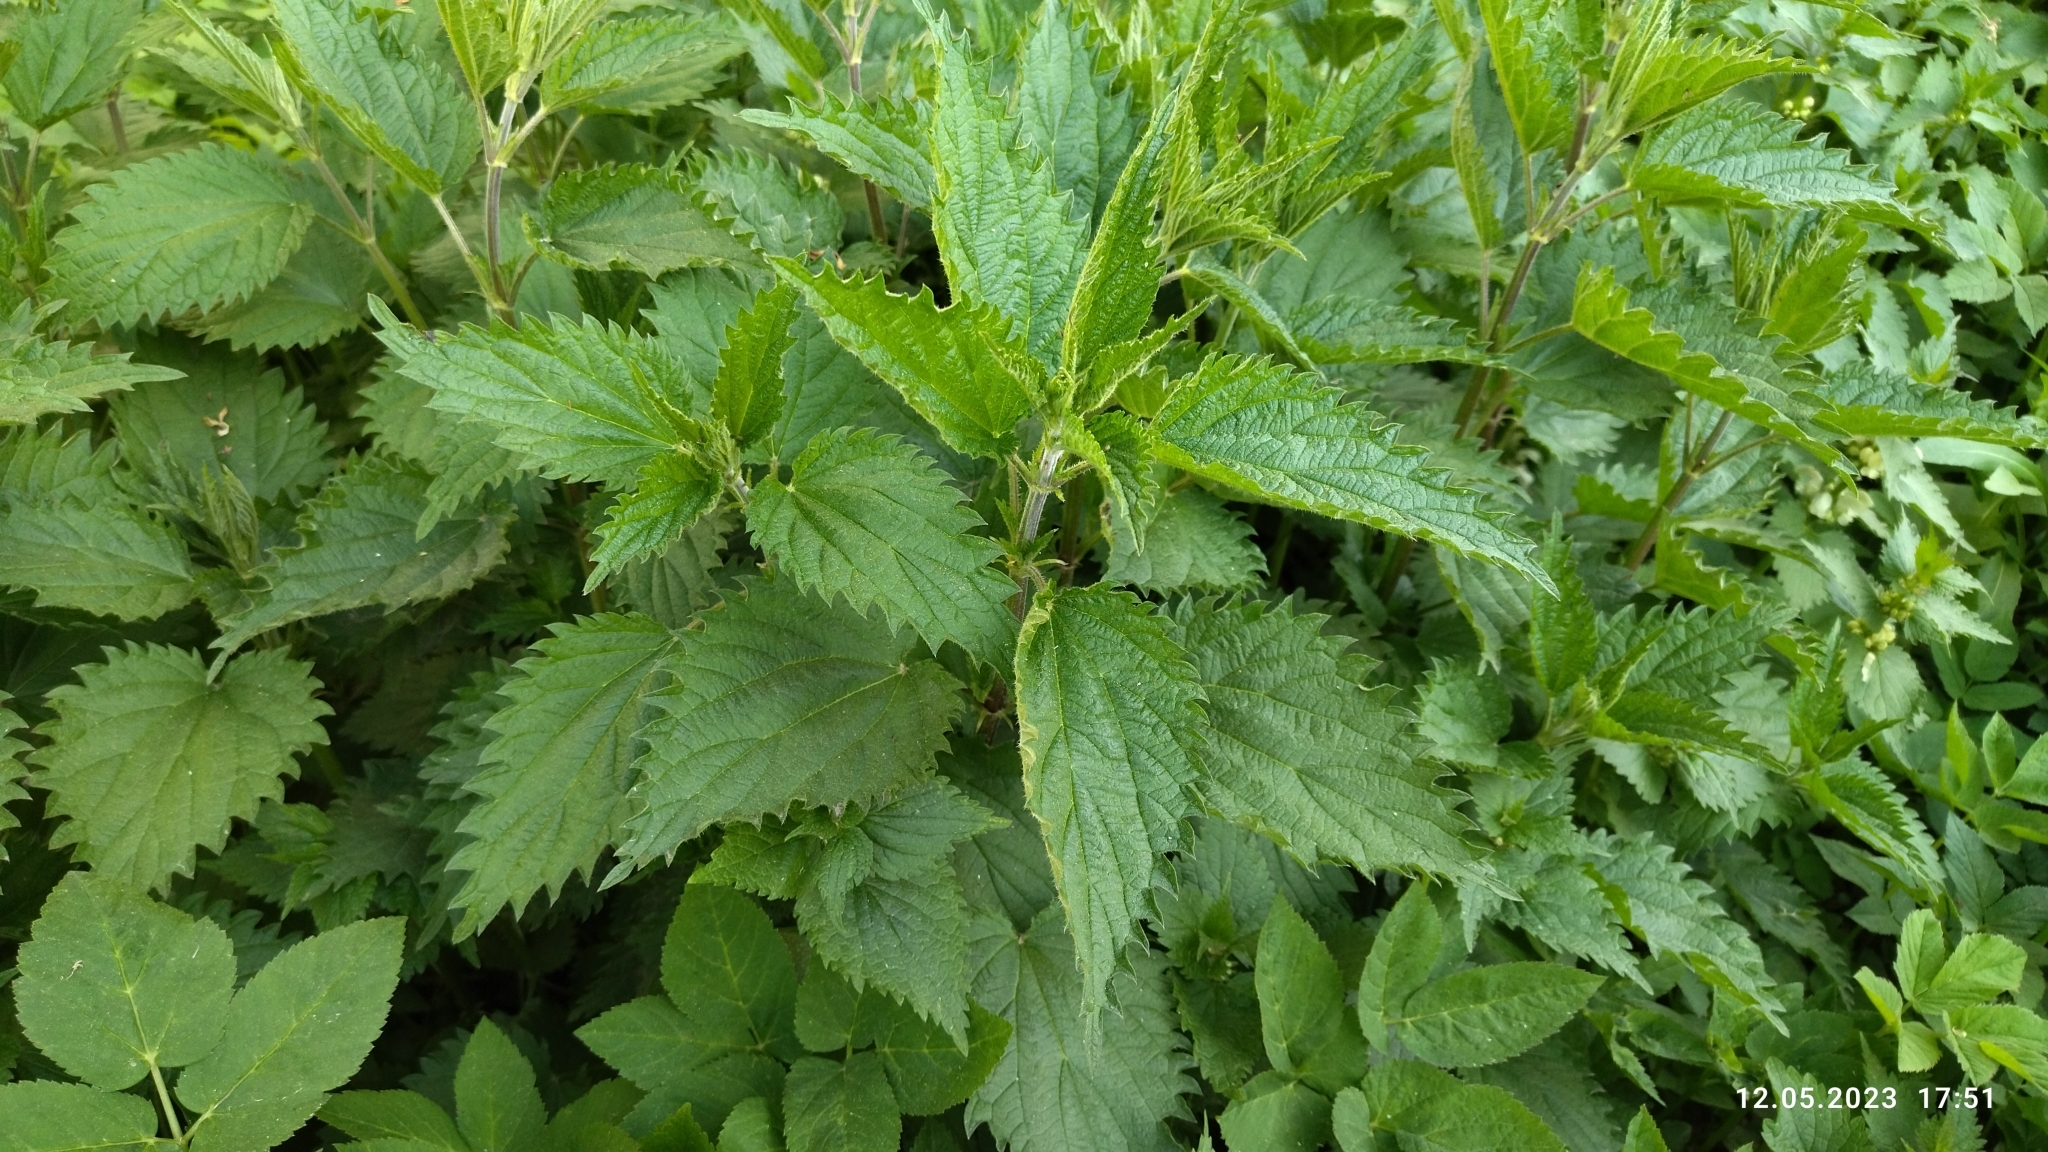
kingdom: Plantae
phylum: Tracheophyta
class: Magnoliopsida
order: Rosales
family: Urticaceae
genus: Urtica
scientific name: Urtica dioica
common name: Common nettle
